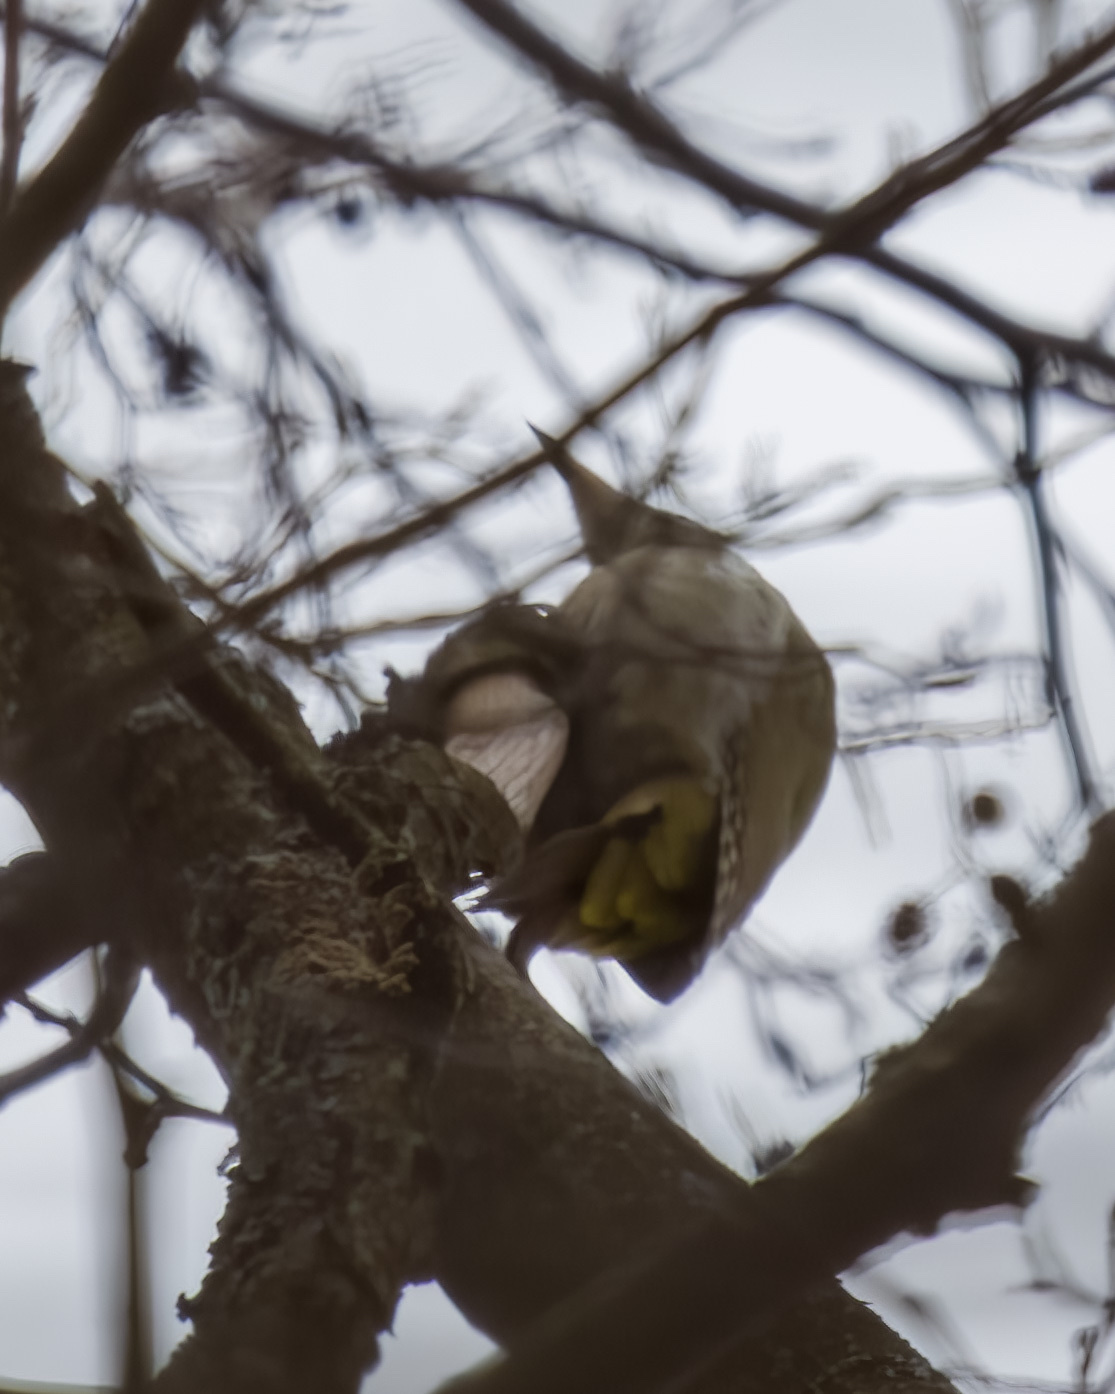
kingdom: Animalia
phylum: Chordata
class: Aves
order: Piciformes
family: Picidae
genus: Picus
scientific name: Picus canus
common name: Grey-headed woodpecker
